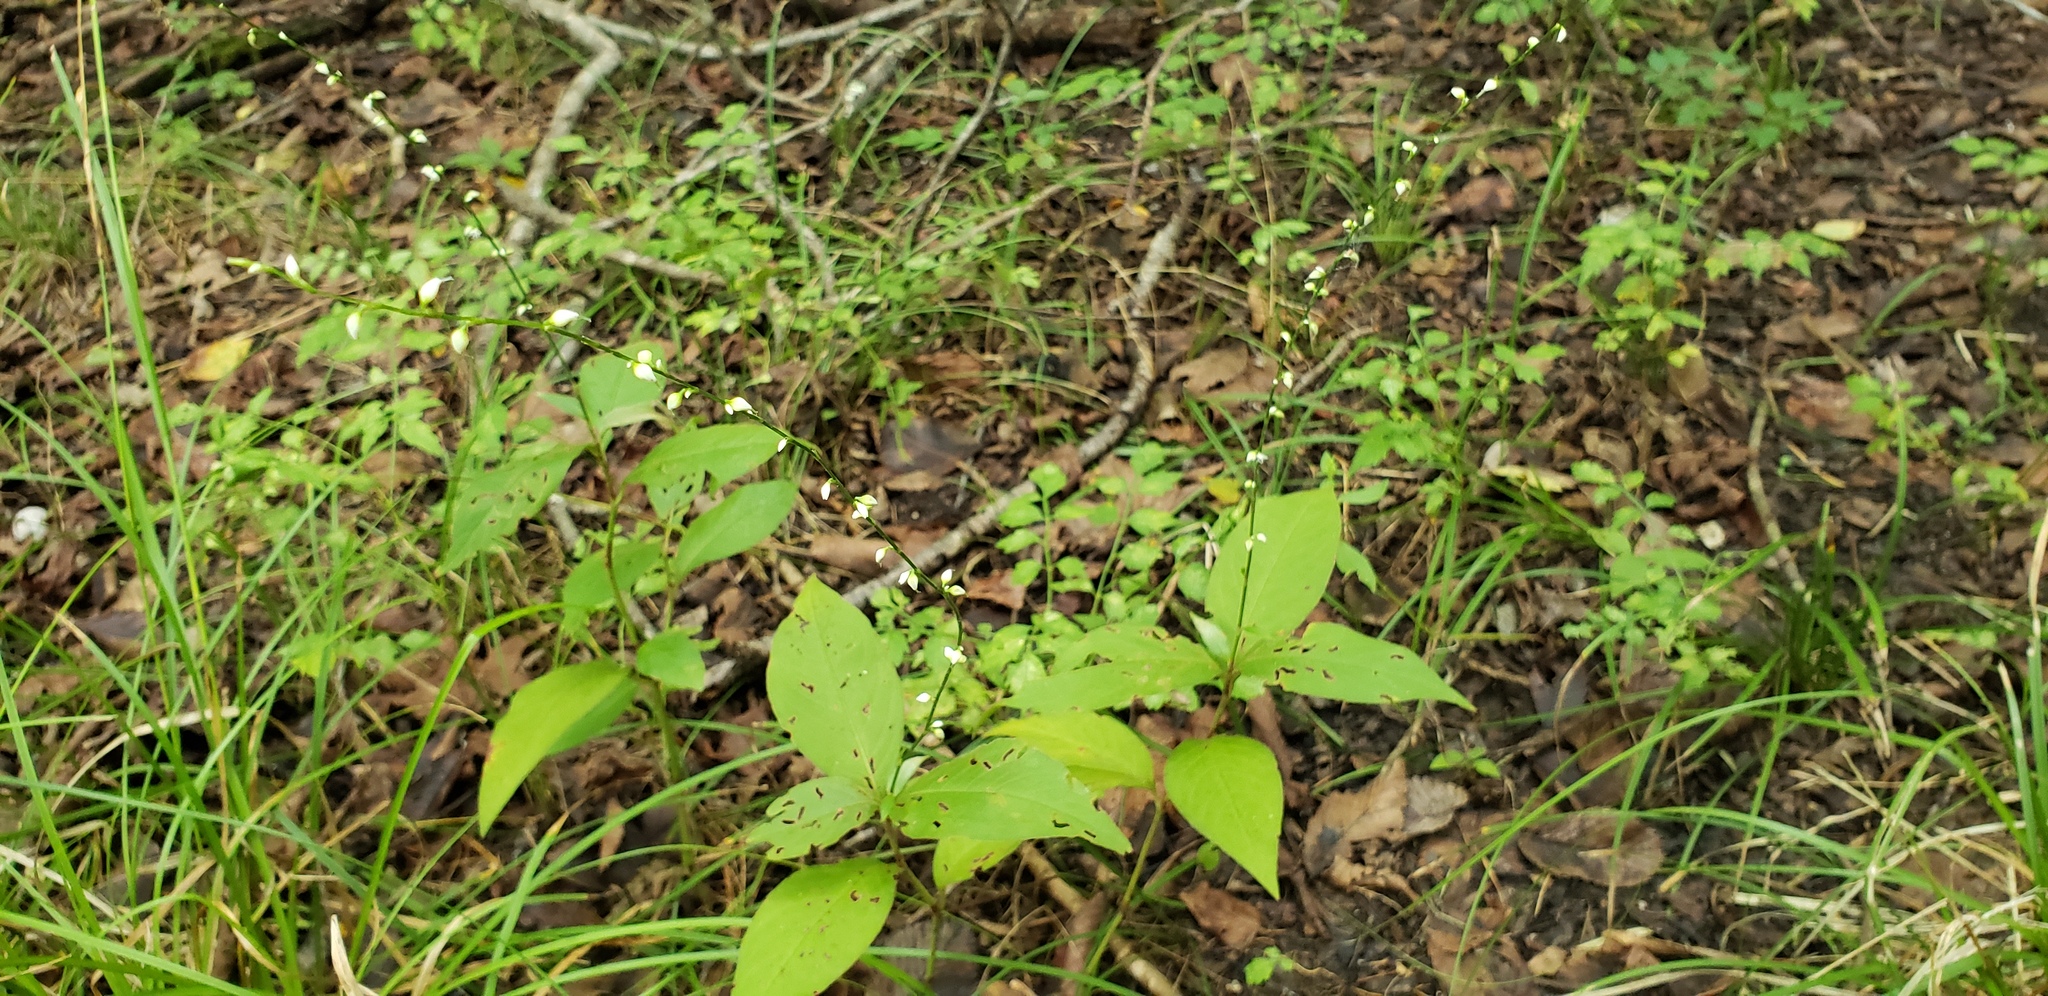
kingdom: Plantae
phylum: Tracheophyta
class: Magnoliopsida
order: Caryophyllales
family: Polygonaceae
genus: Persicaria
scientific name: Persicaria virginiana
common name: Jumpseed
